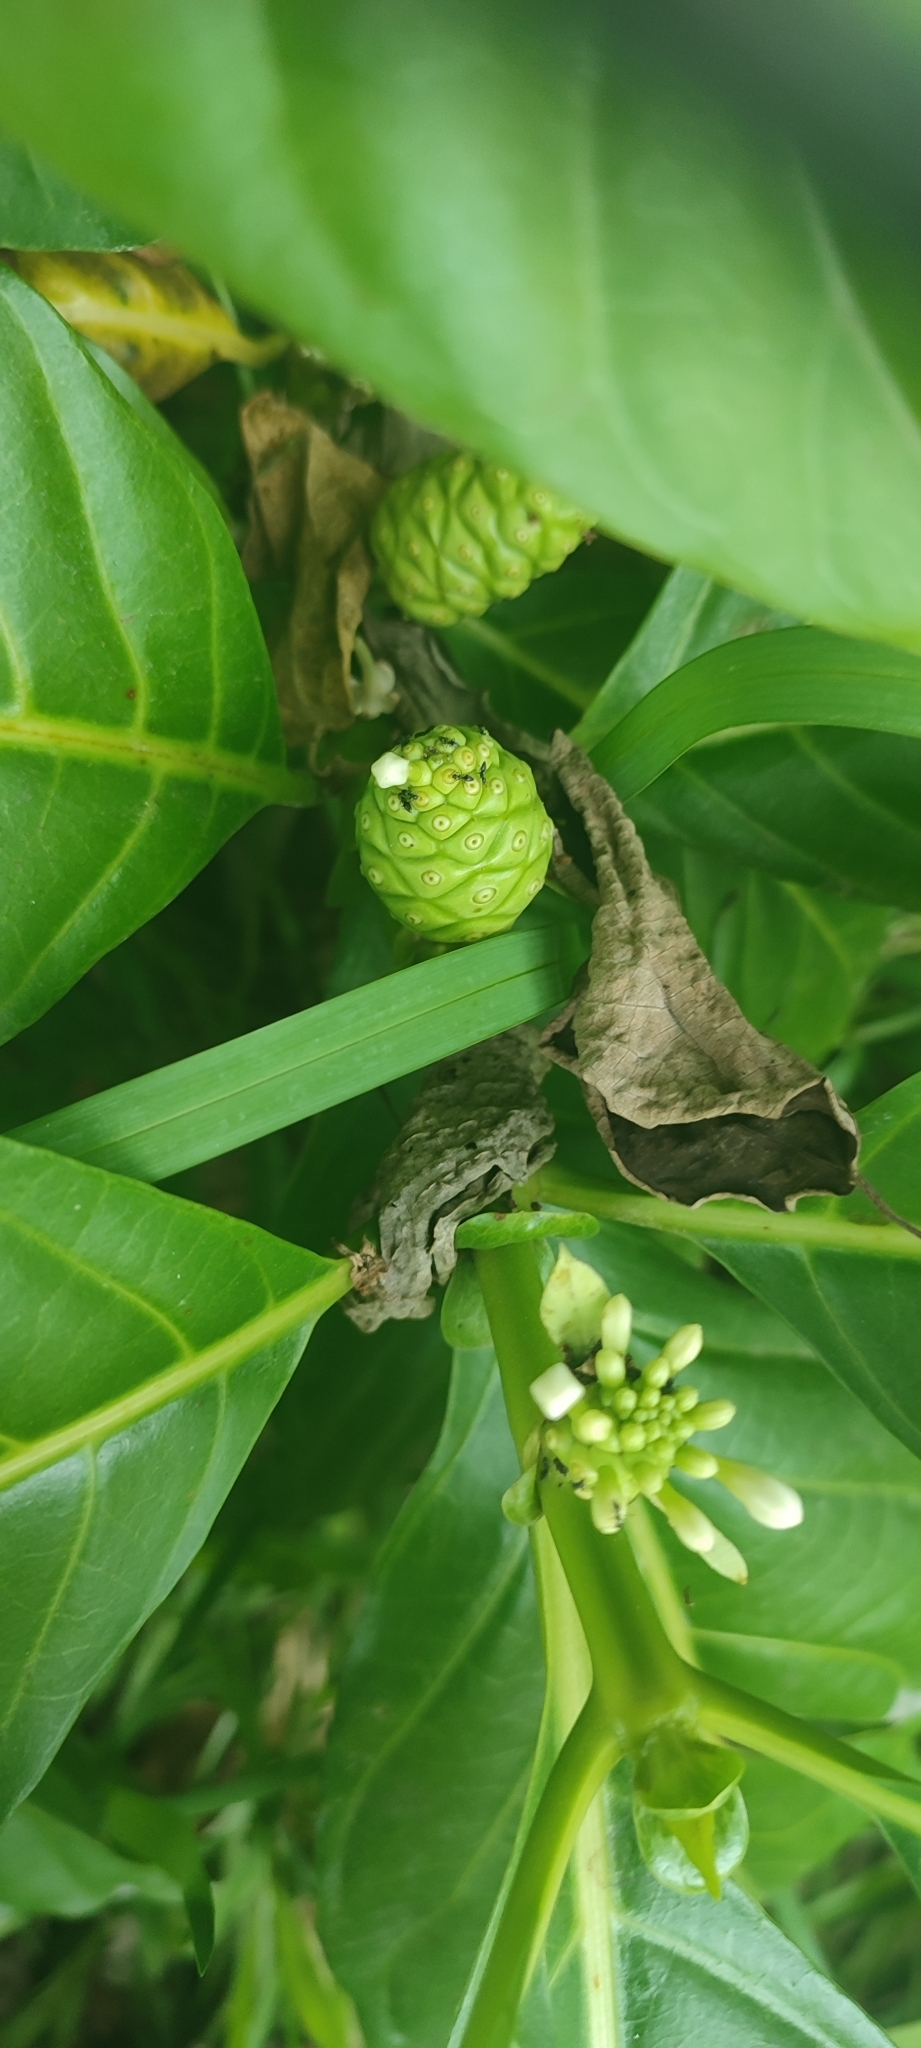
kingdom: Plantae
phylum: Tracheophyta
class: Magnoliopsida
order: Gentianales
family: Rubiaceae
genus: Morinda
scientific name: Morinda citrifolia
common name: Indian-mulberry
